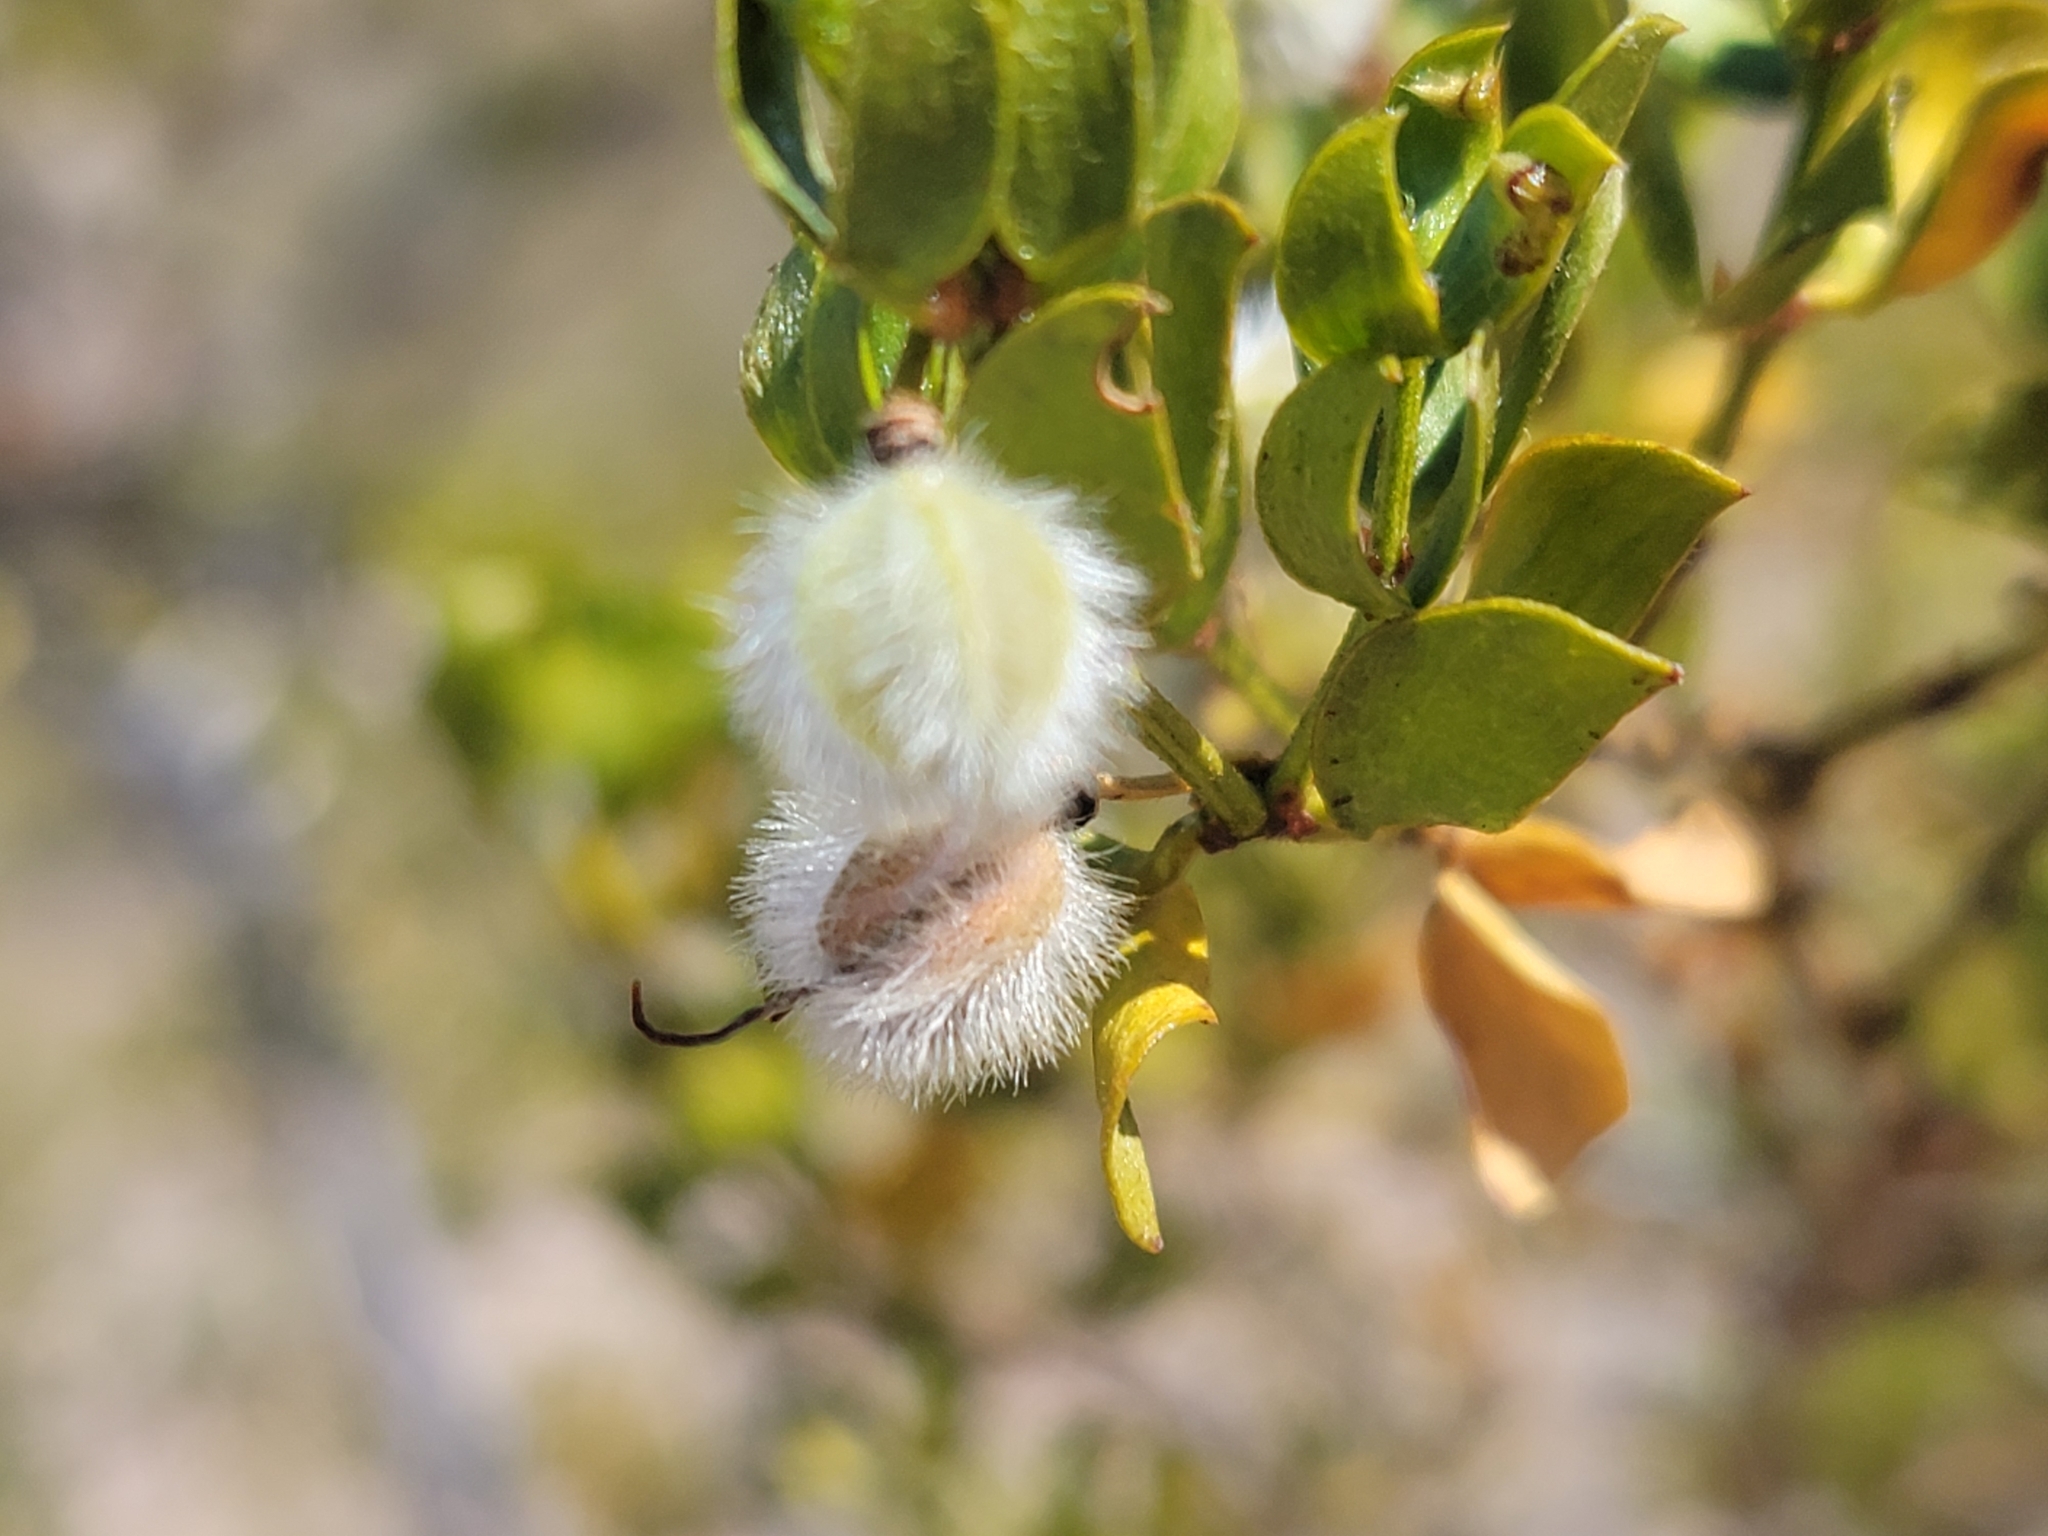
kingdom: Plantae
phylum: Tracheophyta
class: Magnoliopsida
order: Zygophyllales
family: Zygophyllaceae
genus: Larrea
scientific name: Larrea tridentata
